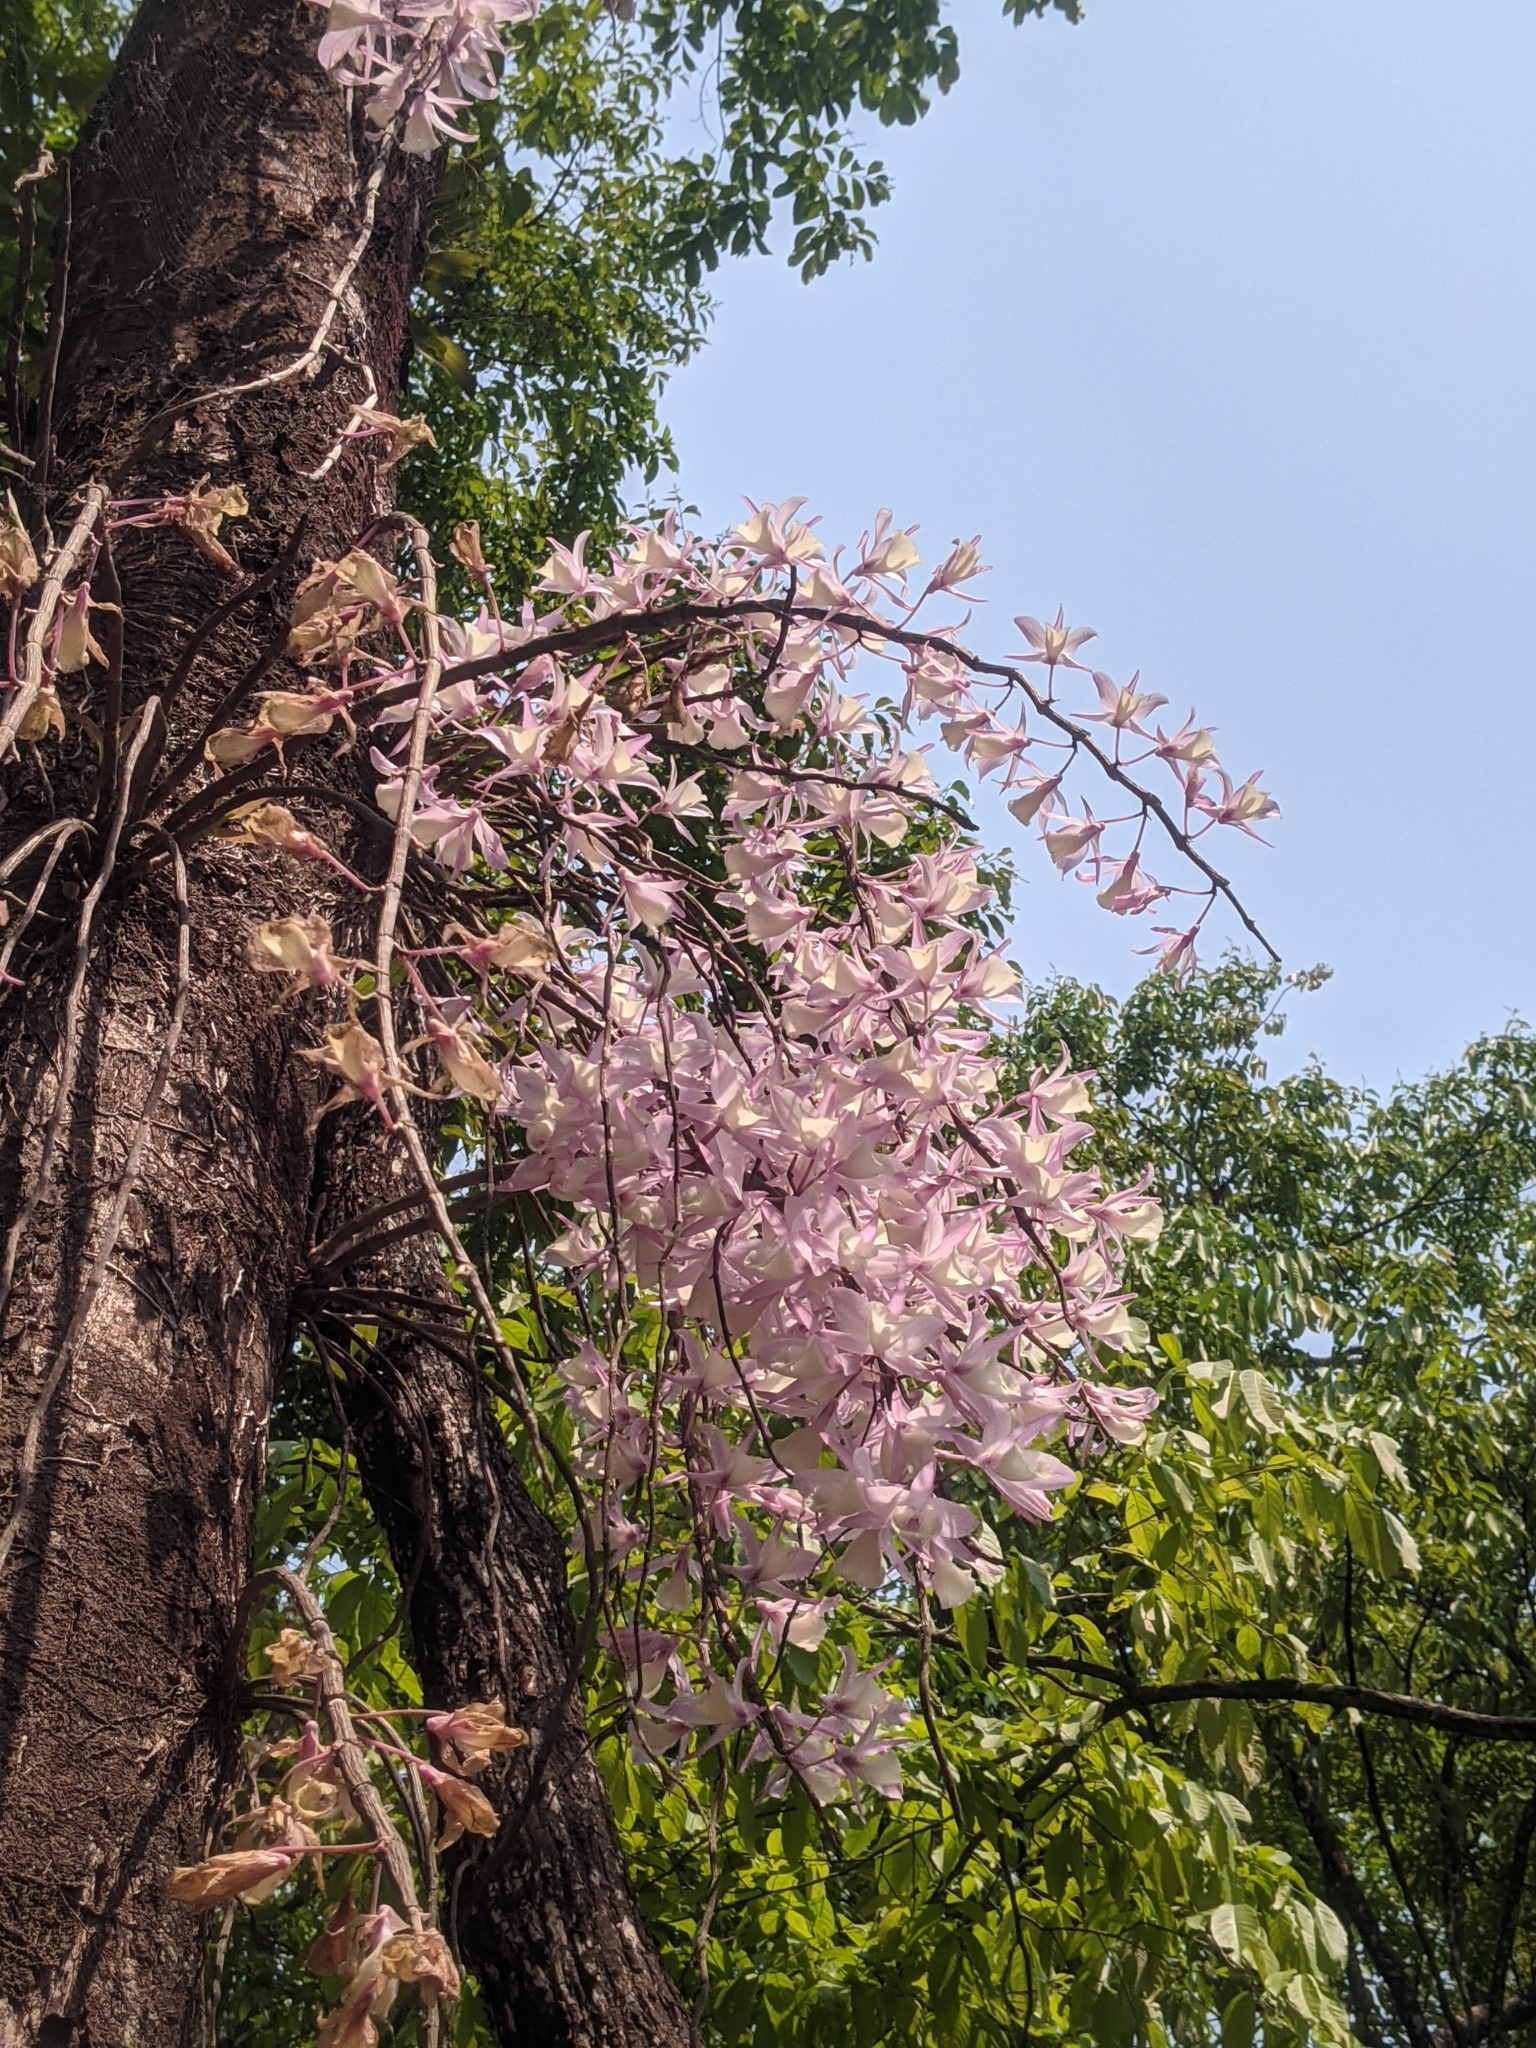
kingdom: Plantae
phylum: Tracheophyta
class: Liliopsida
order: Asparagales
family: Orchidaceae
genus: Dendrobium
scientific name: Dendrobium aphyllum
